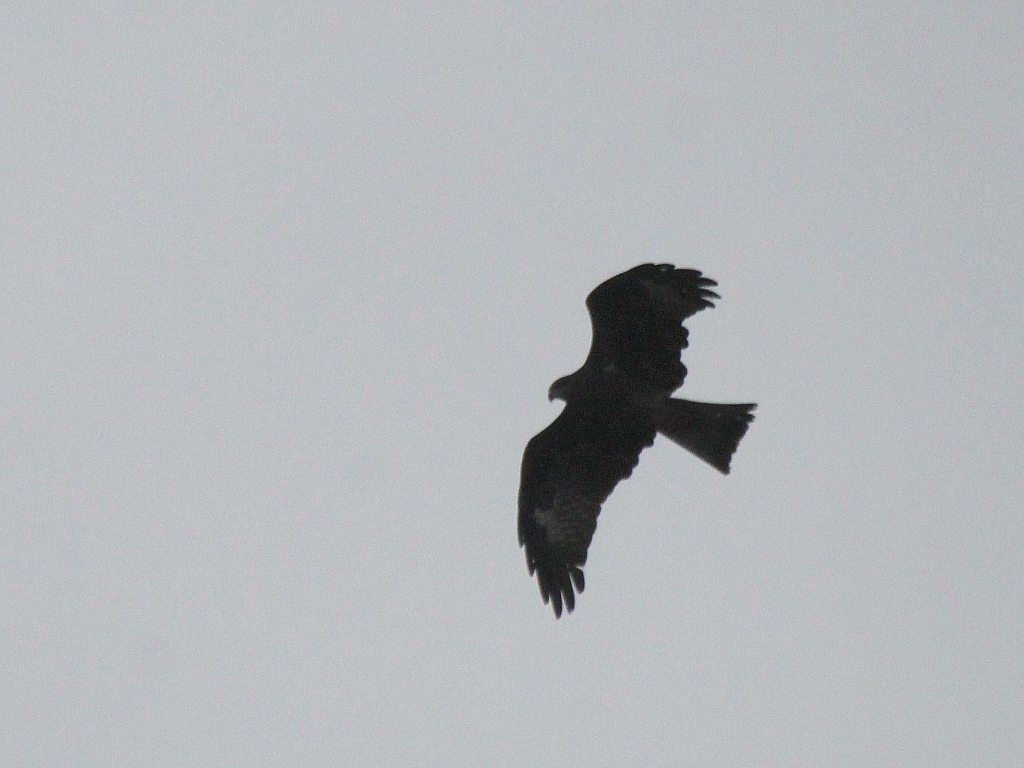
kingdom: Animalia
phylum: Chordata
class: Aves
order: Accipitriformes
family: Accipitridae
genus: Milvus
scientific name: Milvus migrans
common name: Black kite
